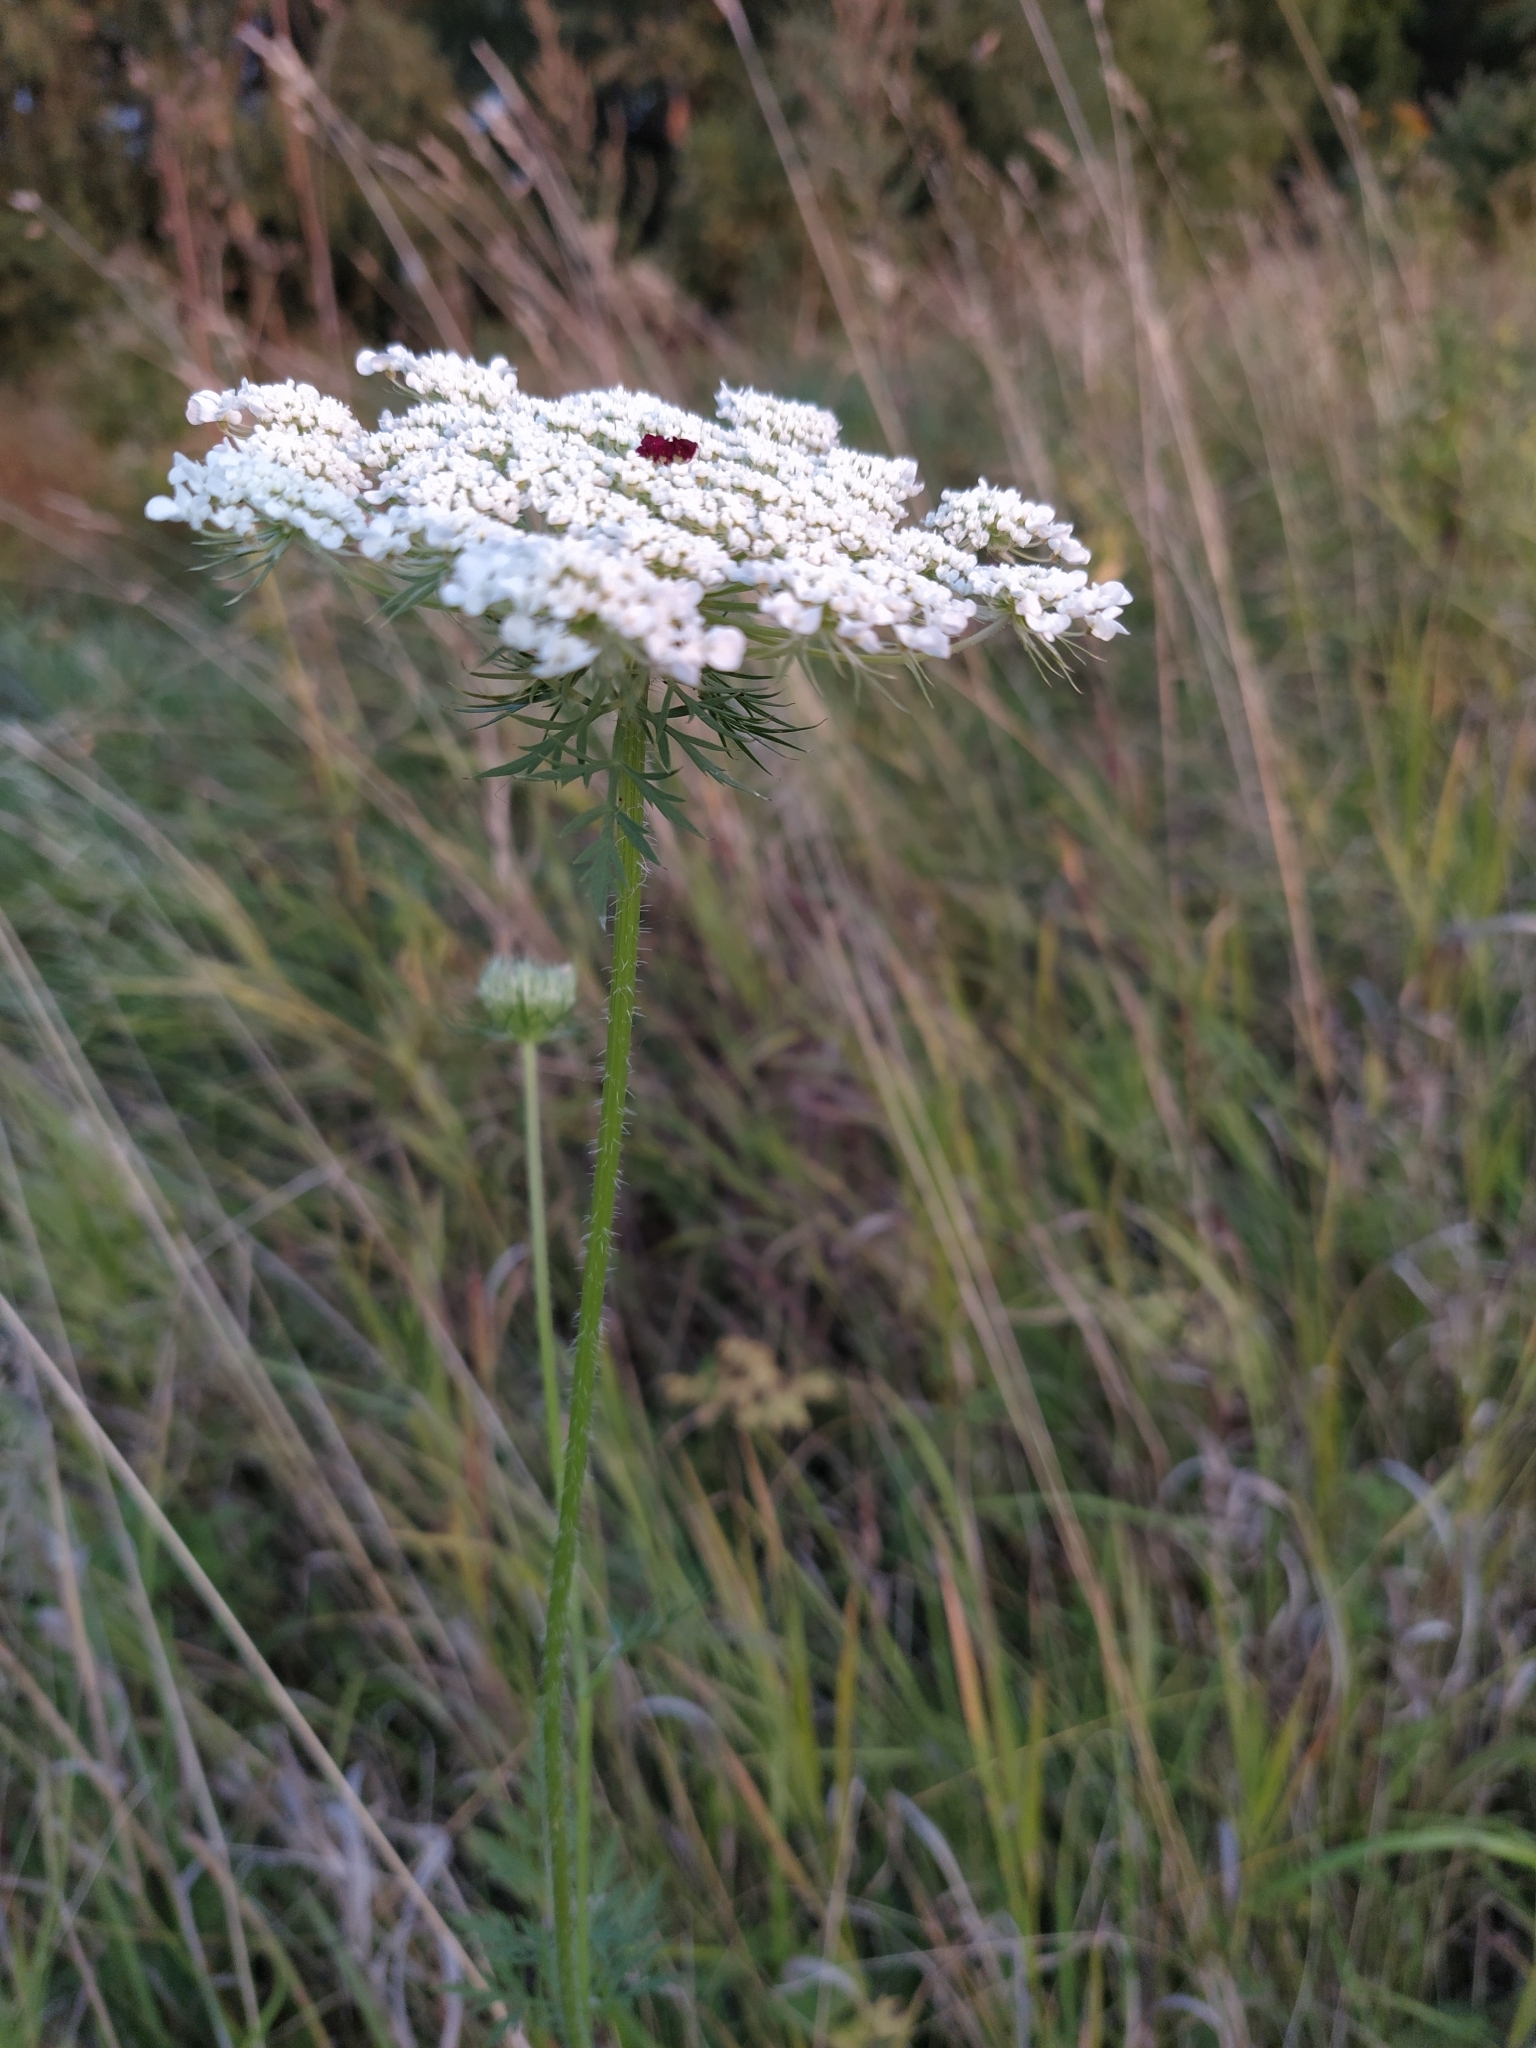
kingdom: Plantae
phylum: Tracheophyta
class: Magnoliopsida
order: Apiales
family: Apiaceae
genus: Daucus
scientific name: Daucus carota
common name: Wild carrot
